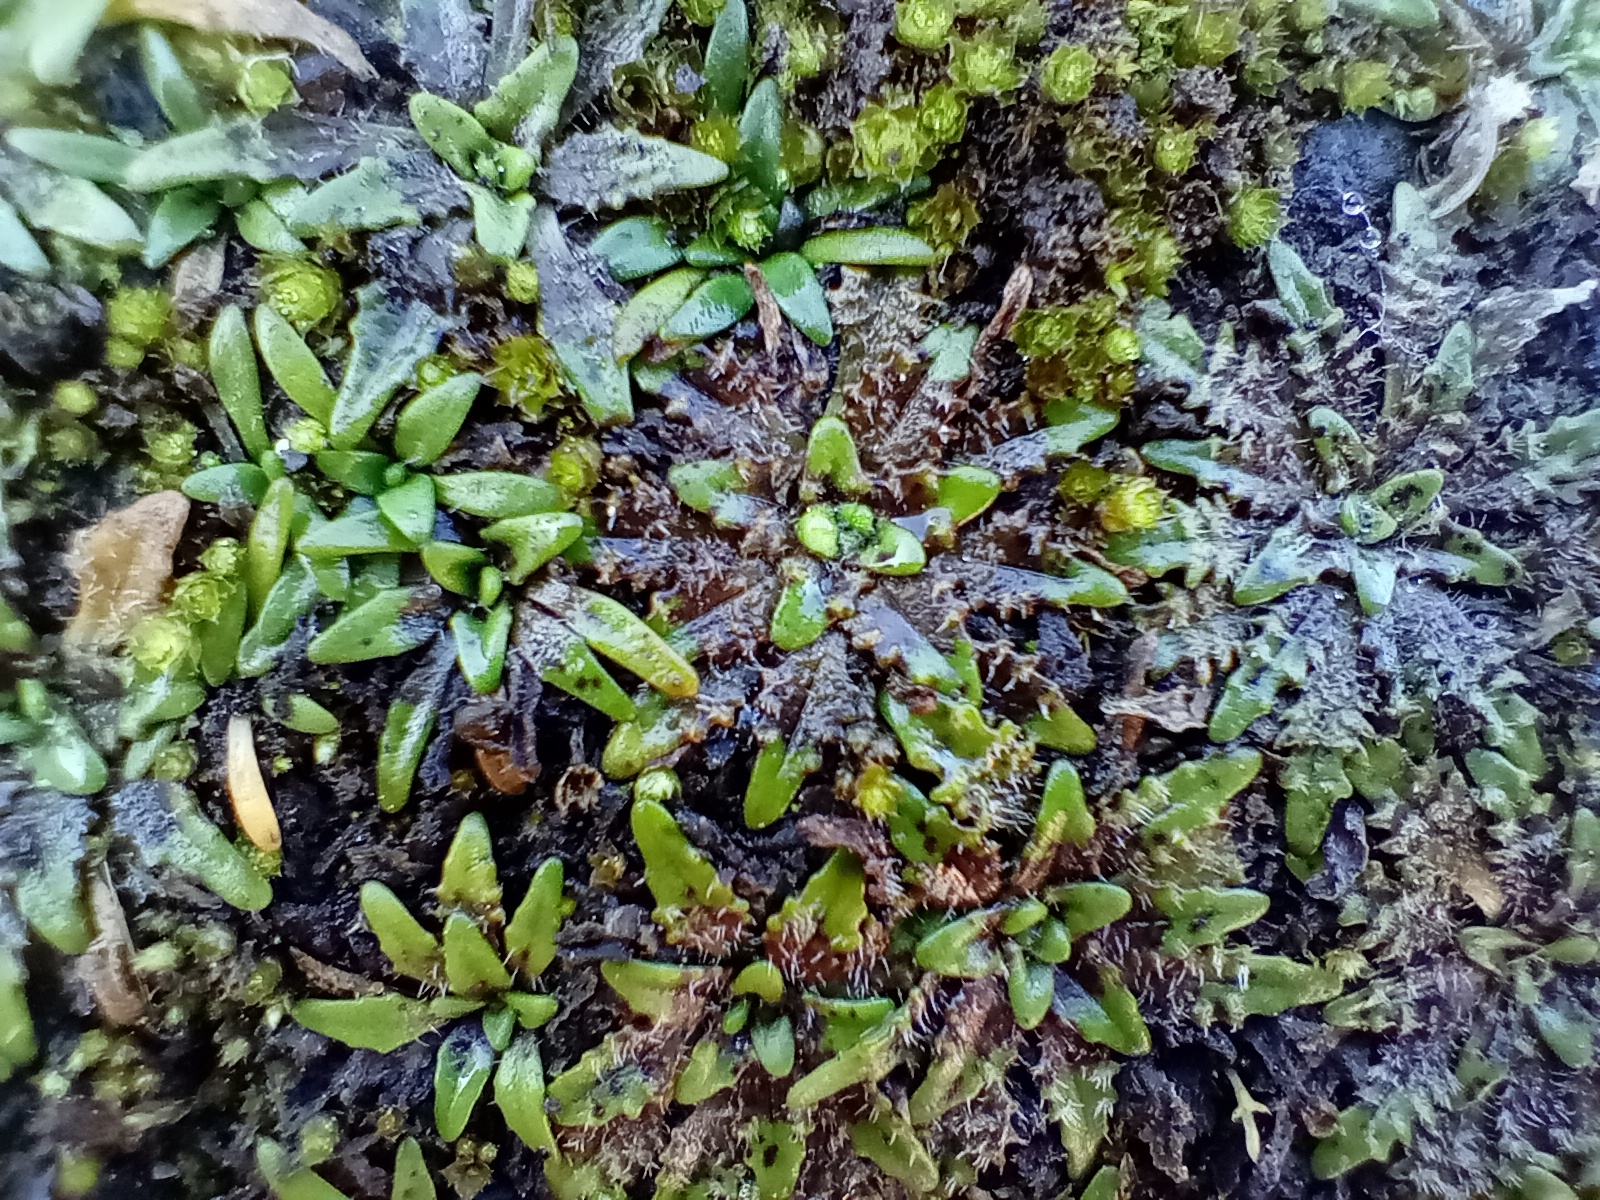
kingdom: Plantae
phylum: Tracheophyta
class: Magnoliopsida
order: Lamiales
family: Plantaginaceae
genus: Plantago
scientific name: Plantago triandra
